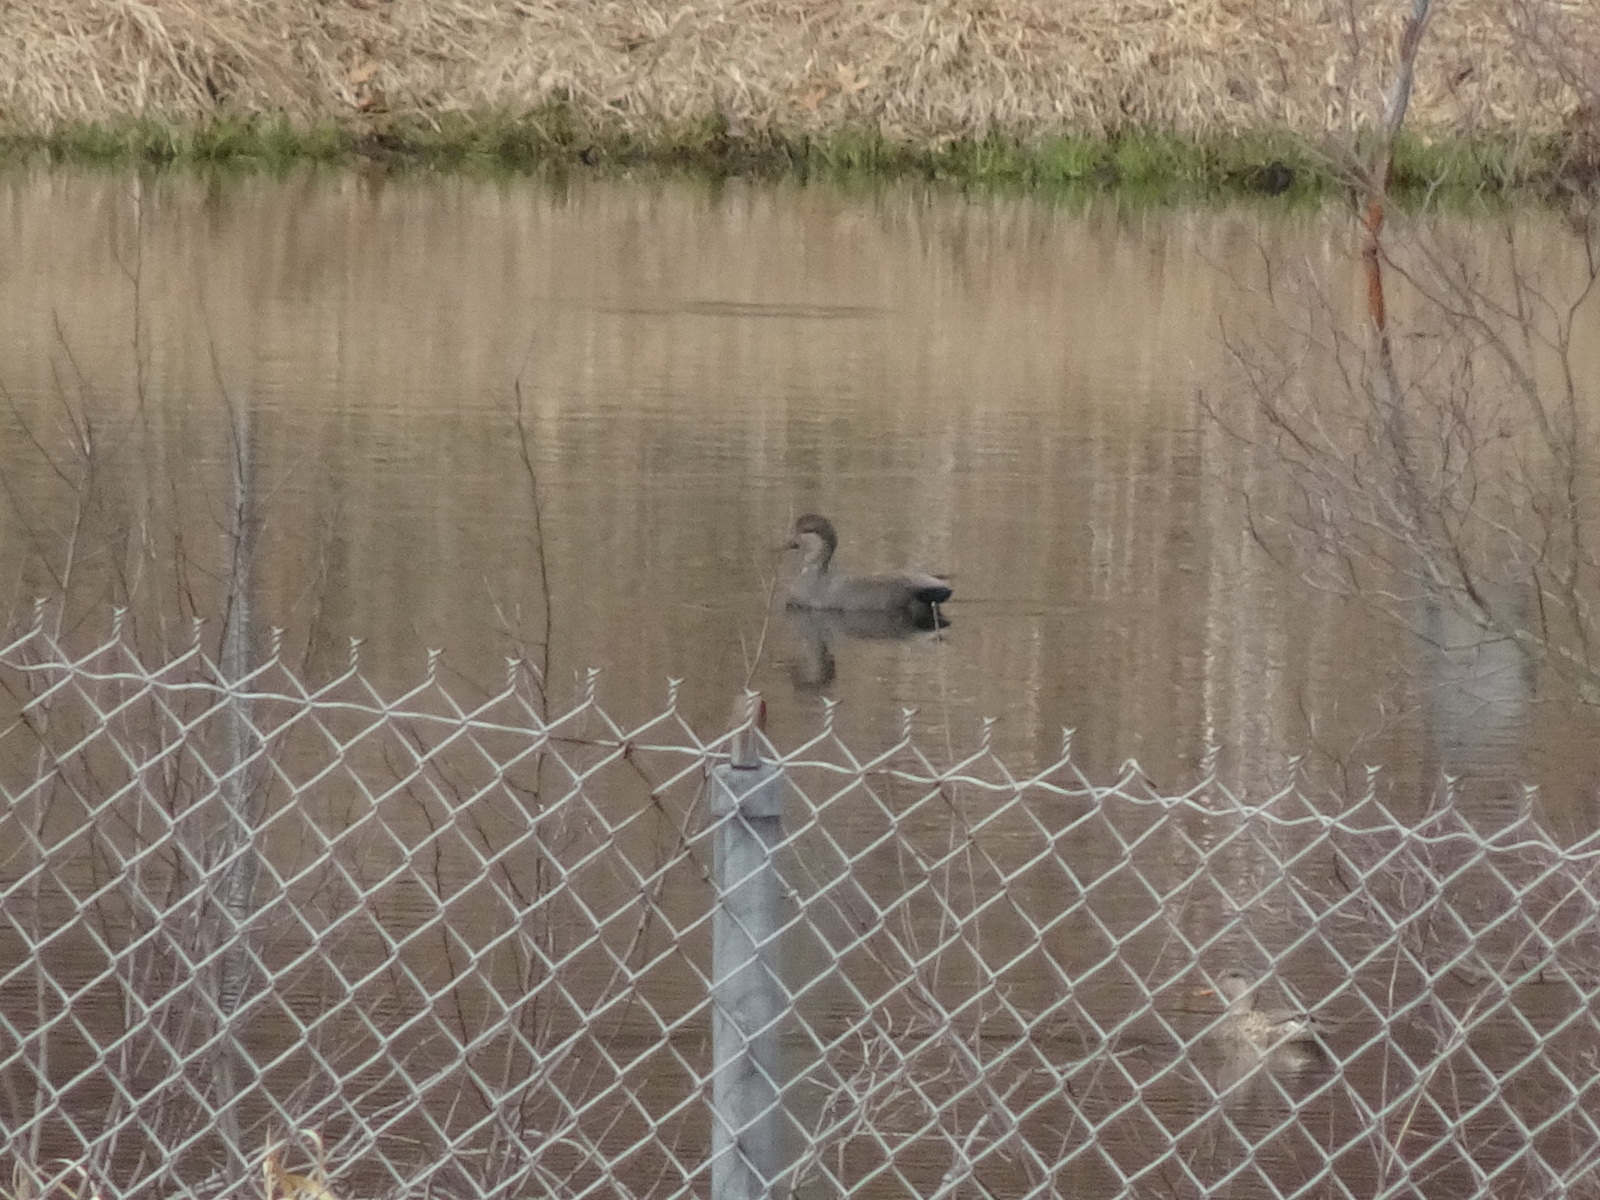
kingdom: Animalia
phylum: Chordata
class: Aves
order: Anseriformes
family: Anatidae
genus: Mareca
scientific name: Mareca strepera
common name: Gadwall
